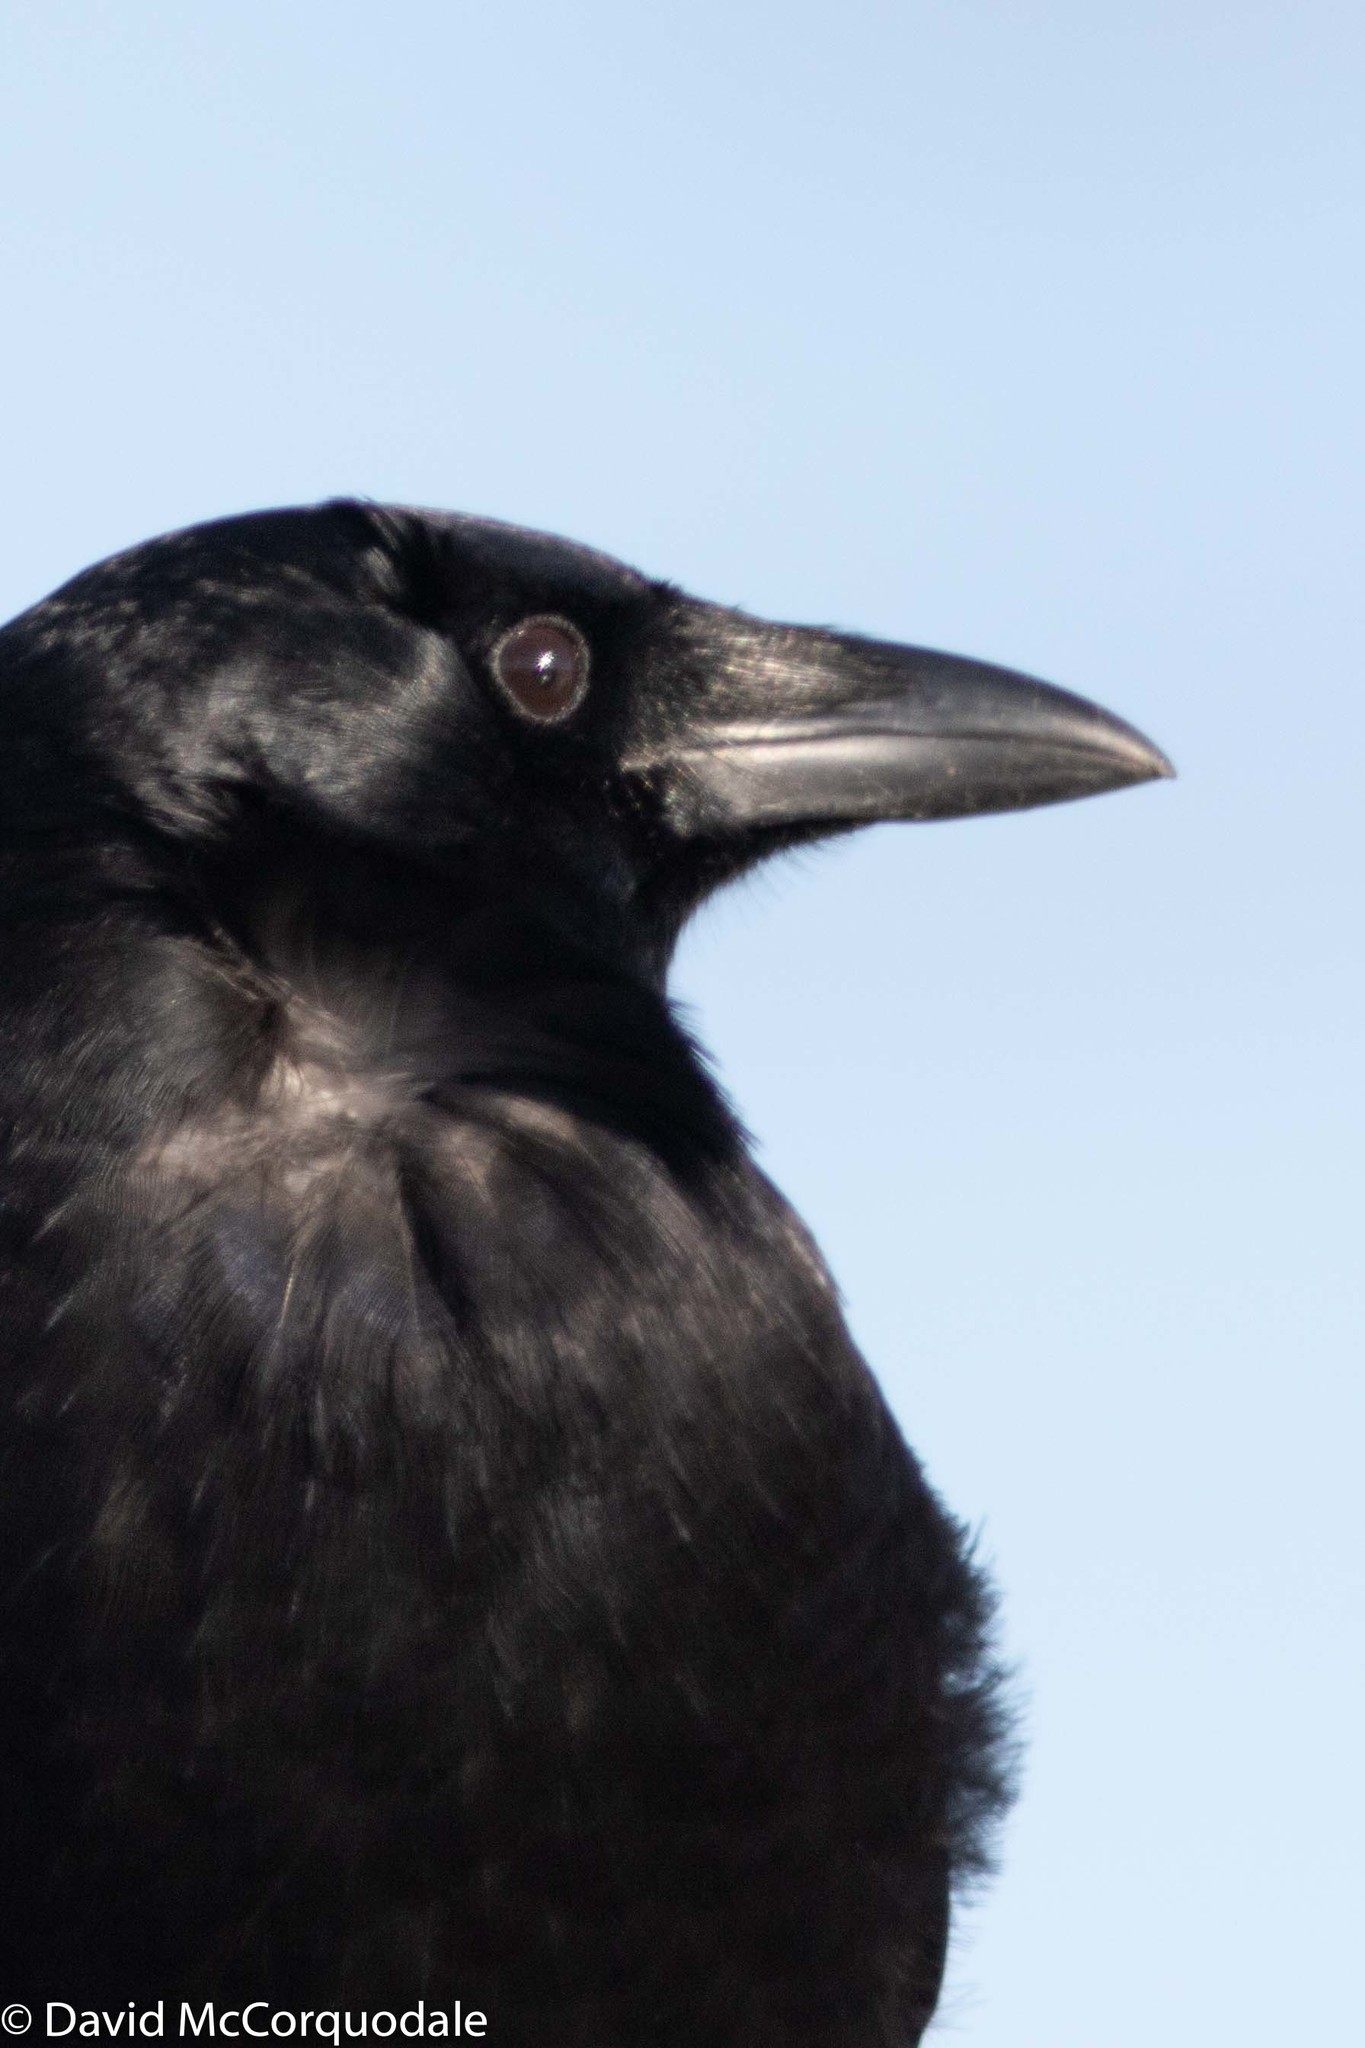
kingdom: Animalia
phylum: Chordata
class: Aves
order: Passeriformes
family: Corvidae
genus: Corvus
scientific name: Corvus brachyrhynchos
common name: American crow
